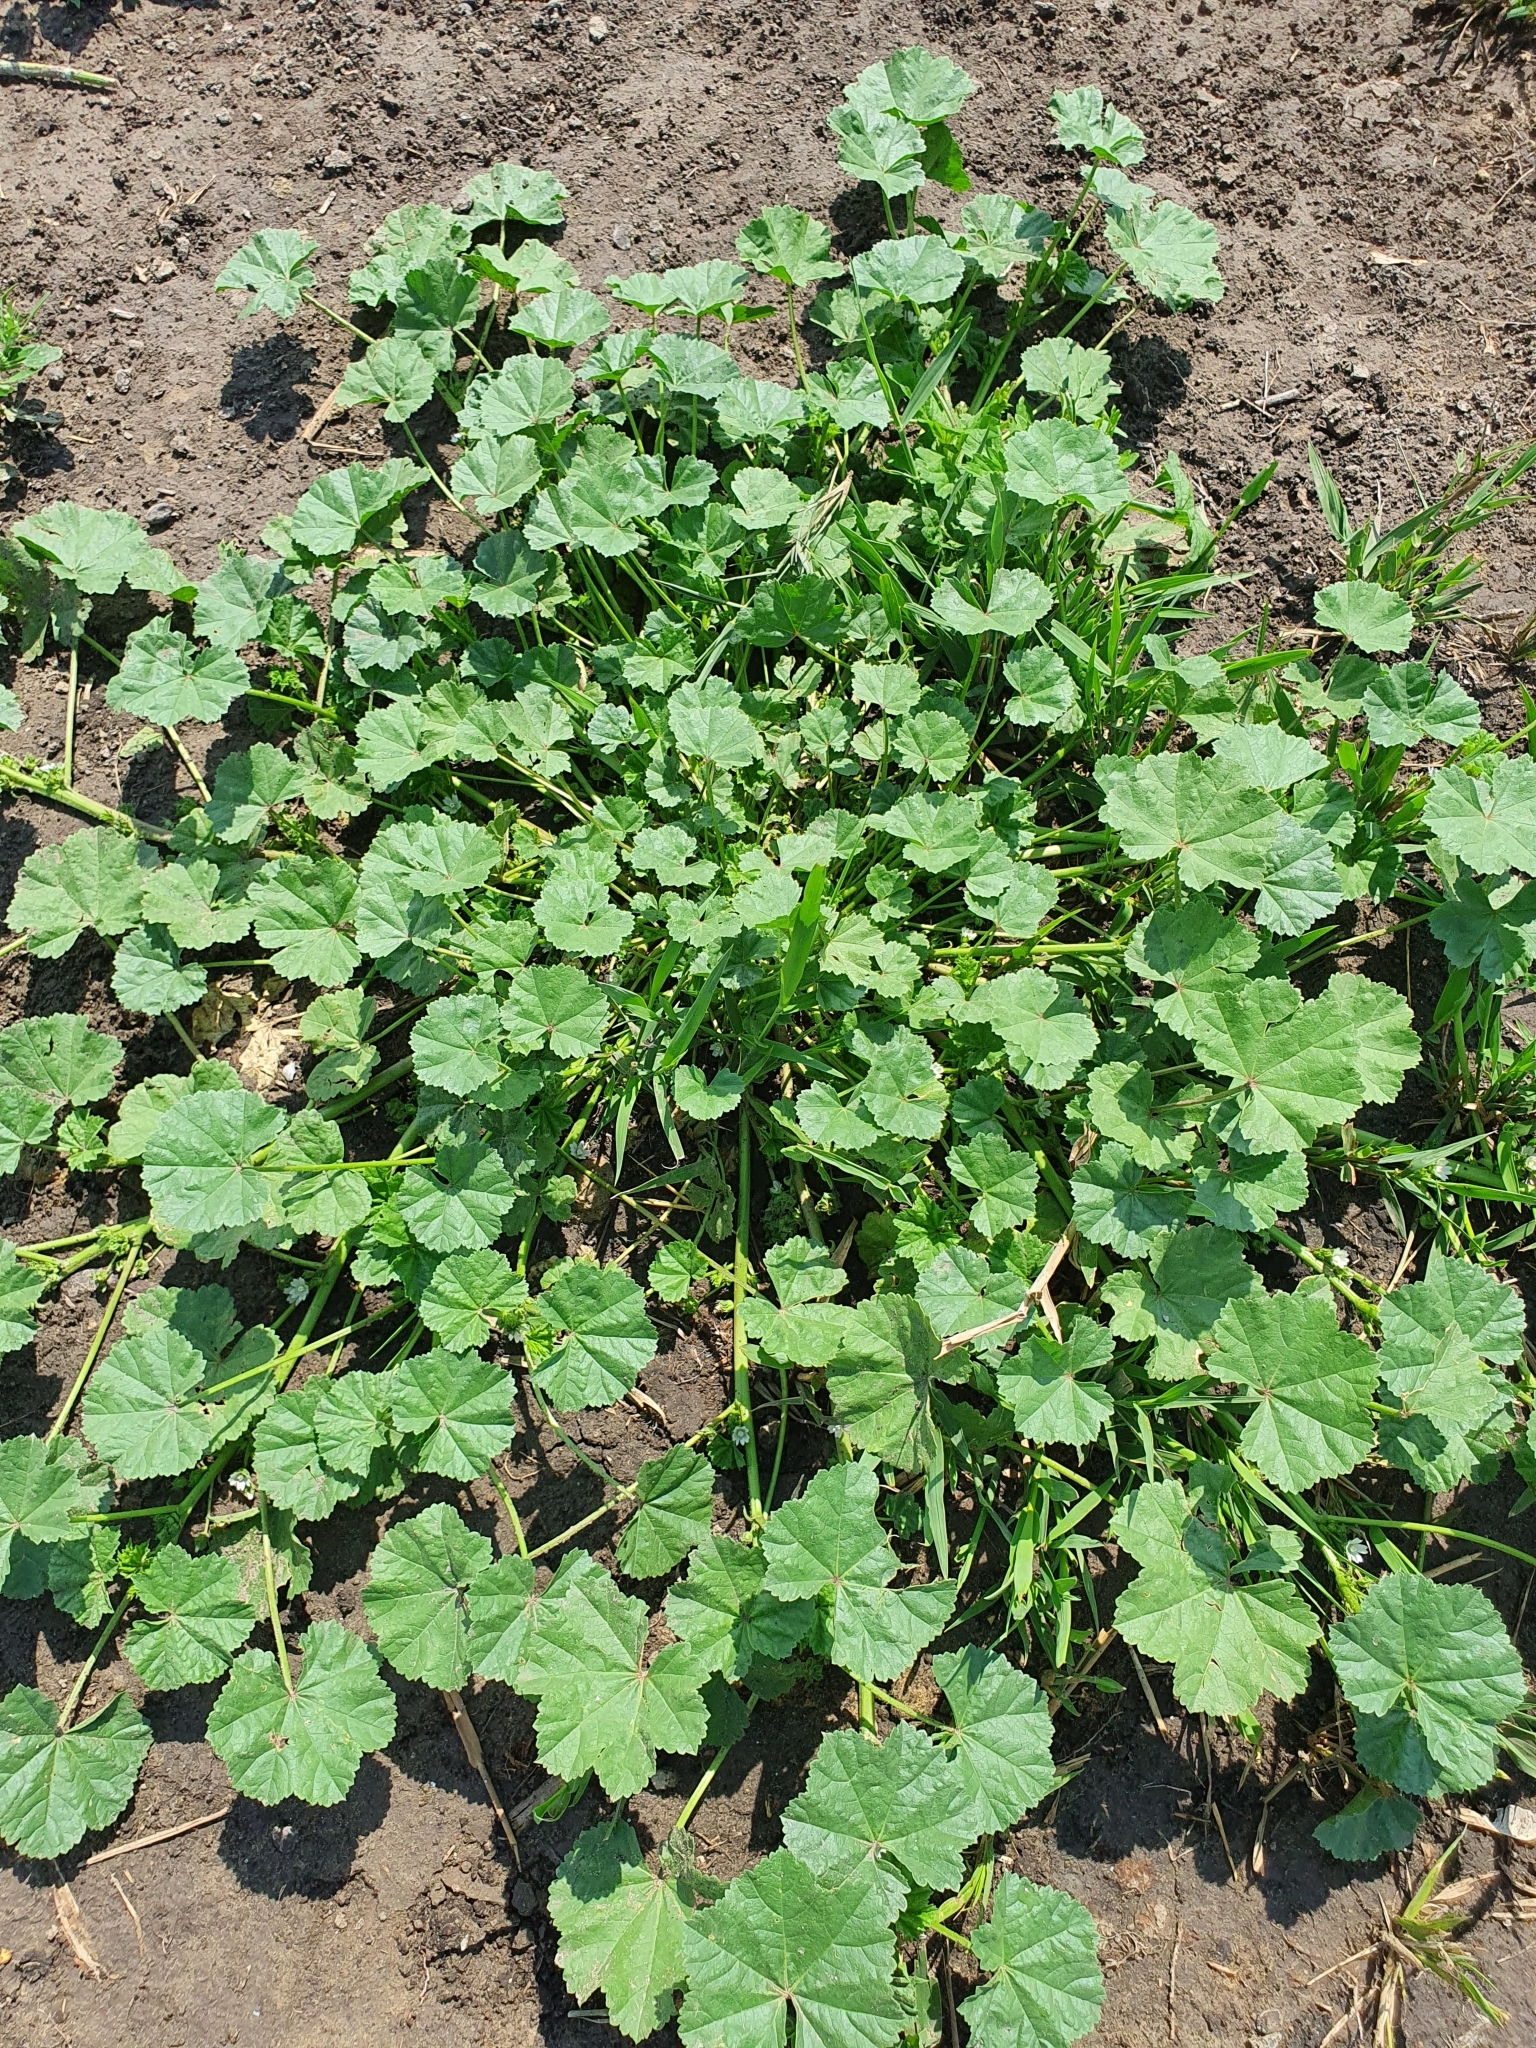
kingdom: Plantae
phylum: Tracheophyta
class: Magnoliopsida
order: Malvales
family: Malvaceae
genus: Malva
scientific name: Malva pusilla
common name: Small mallow
